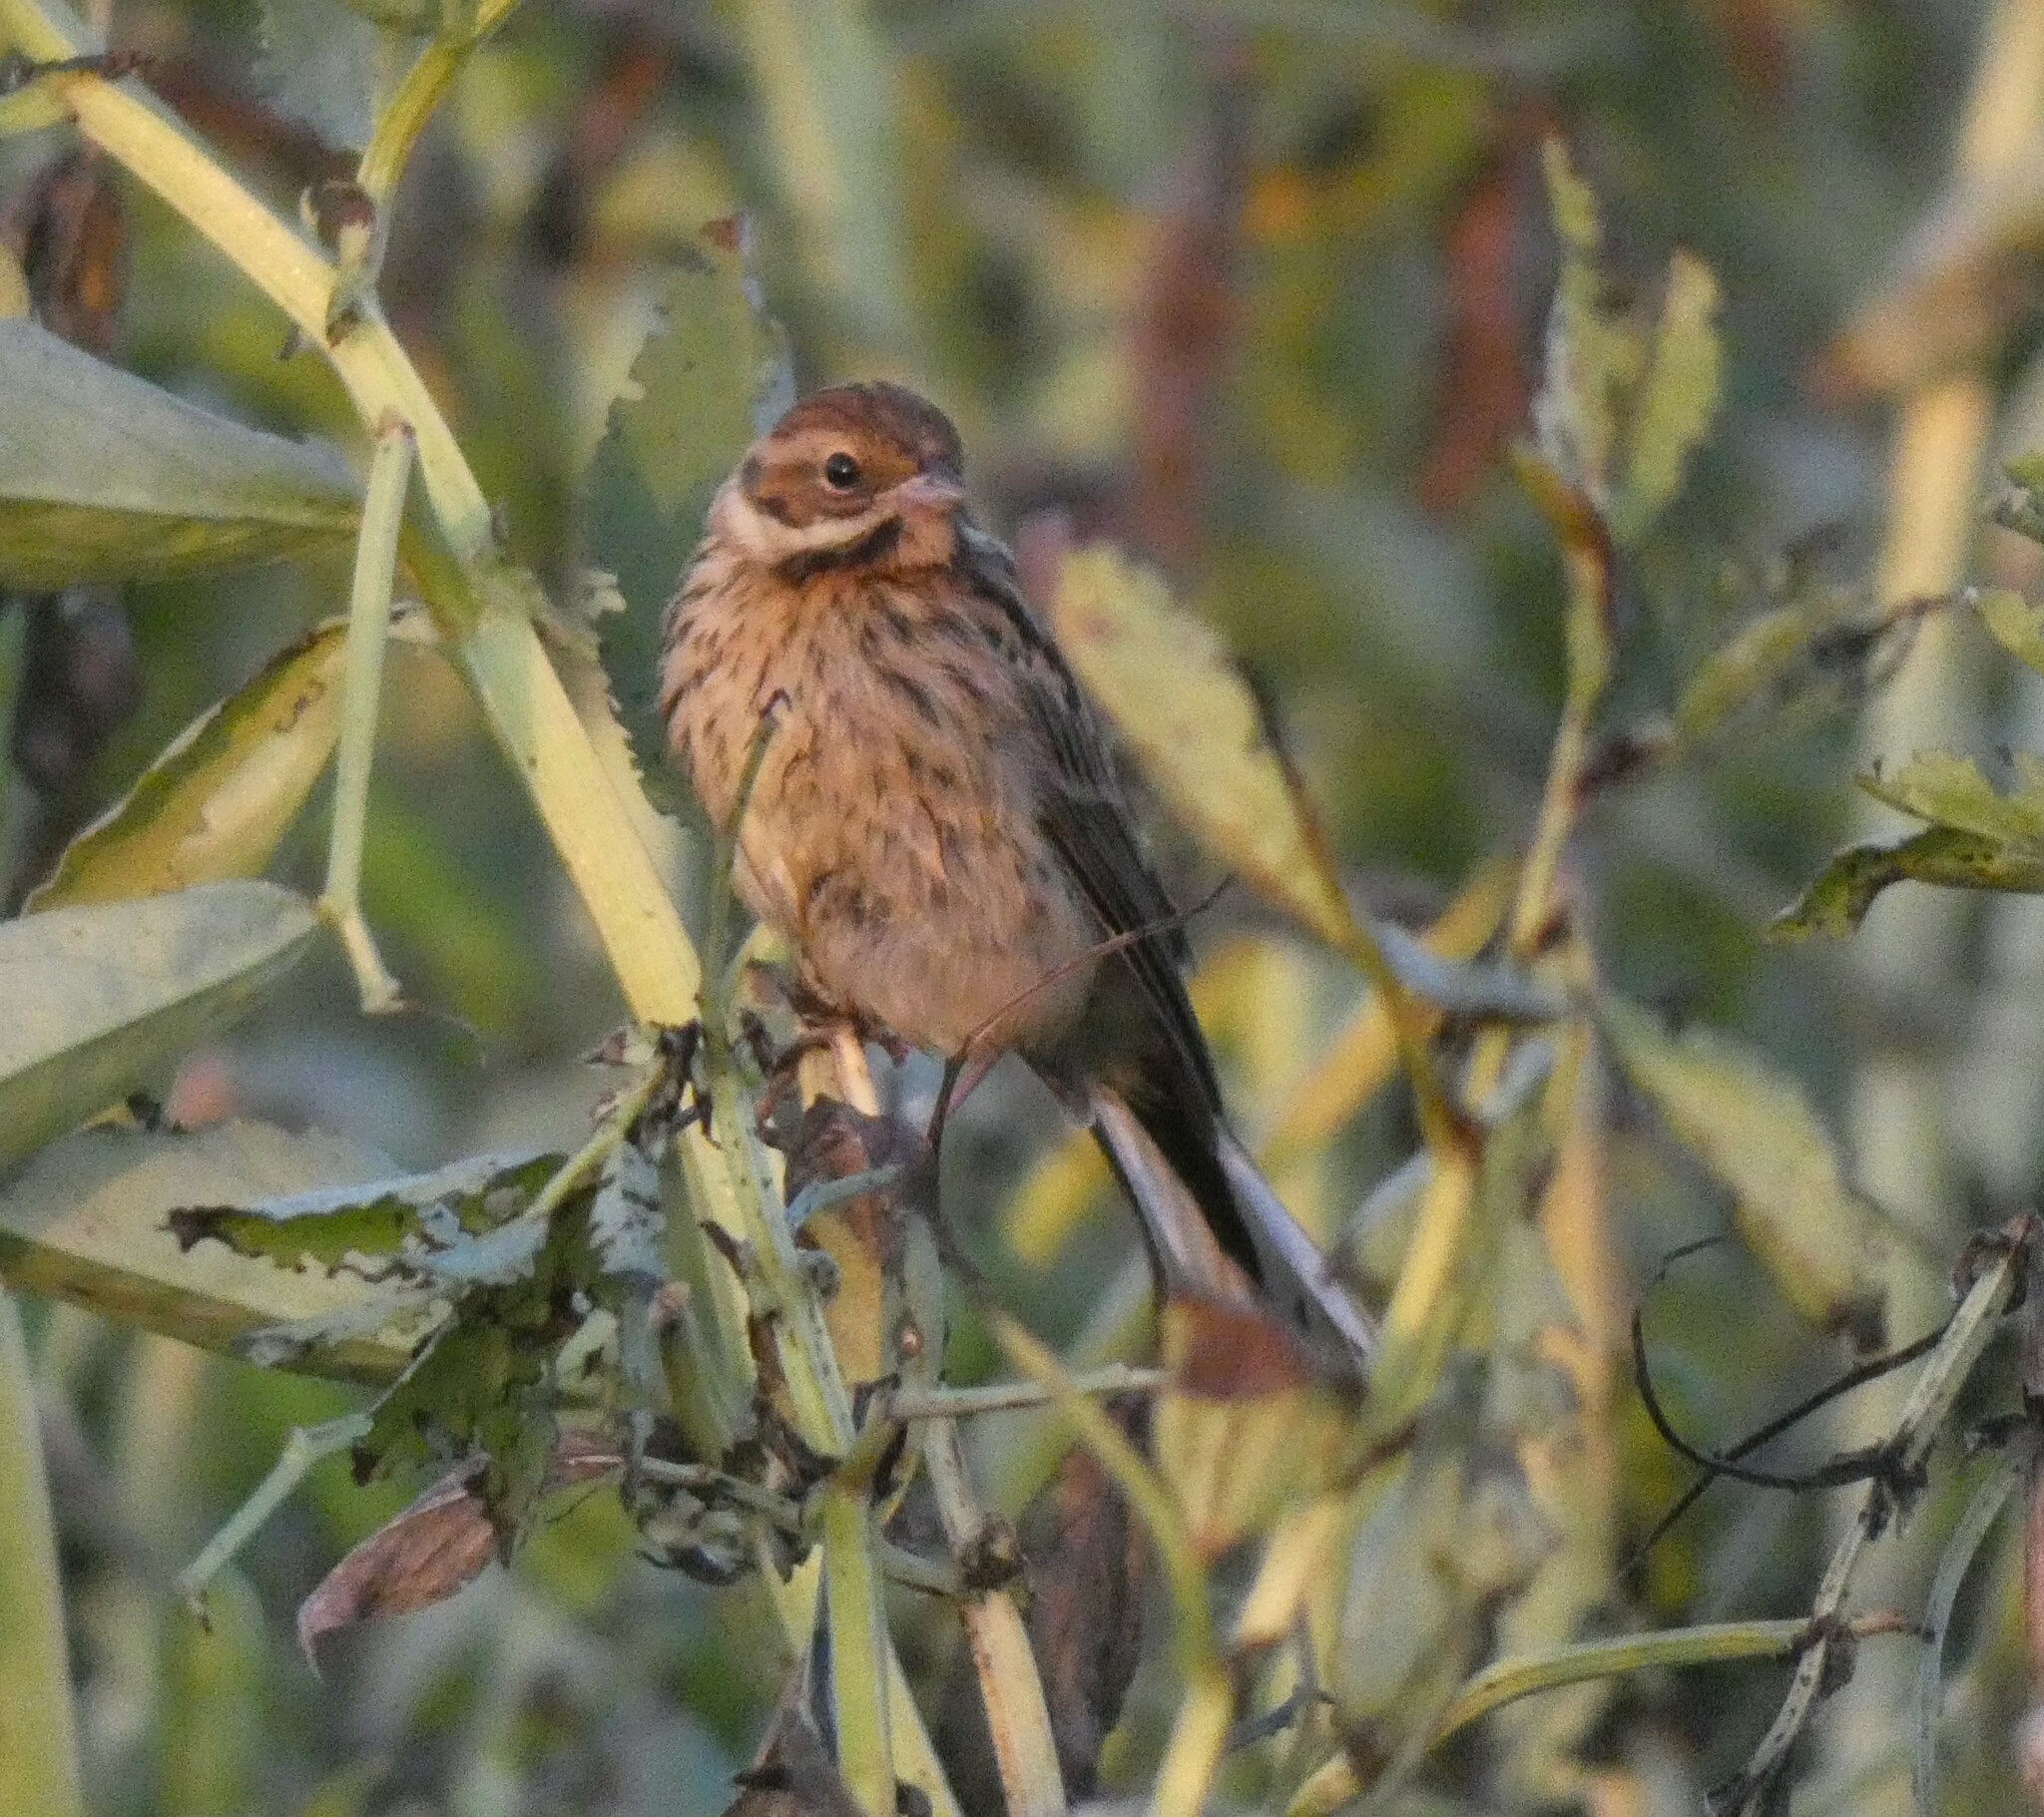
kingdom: Animalia
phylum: Chordata
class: Aves
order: Passeriformes
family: Emberizidae
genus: Emberiza
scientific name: Emberiza schoeniclus
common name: Reed bunting
